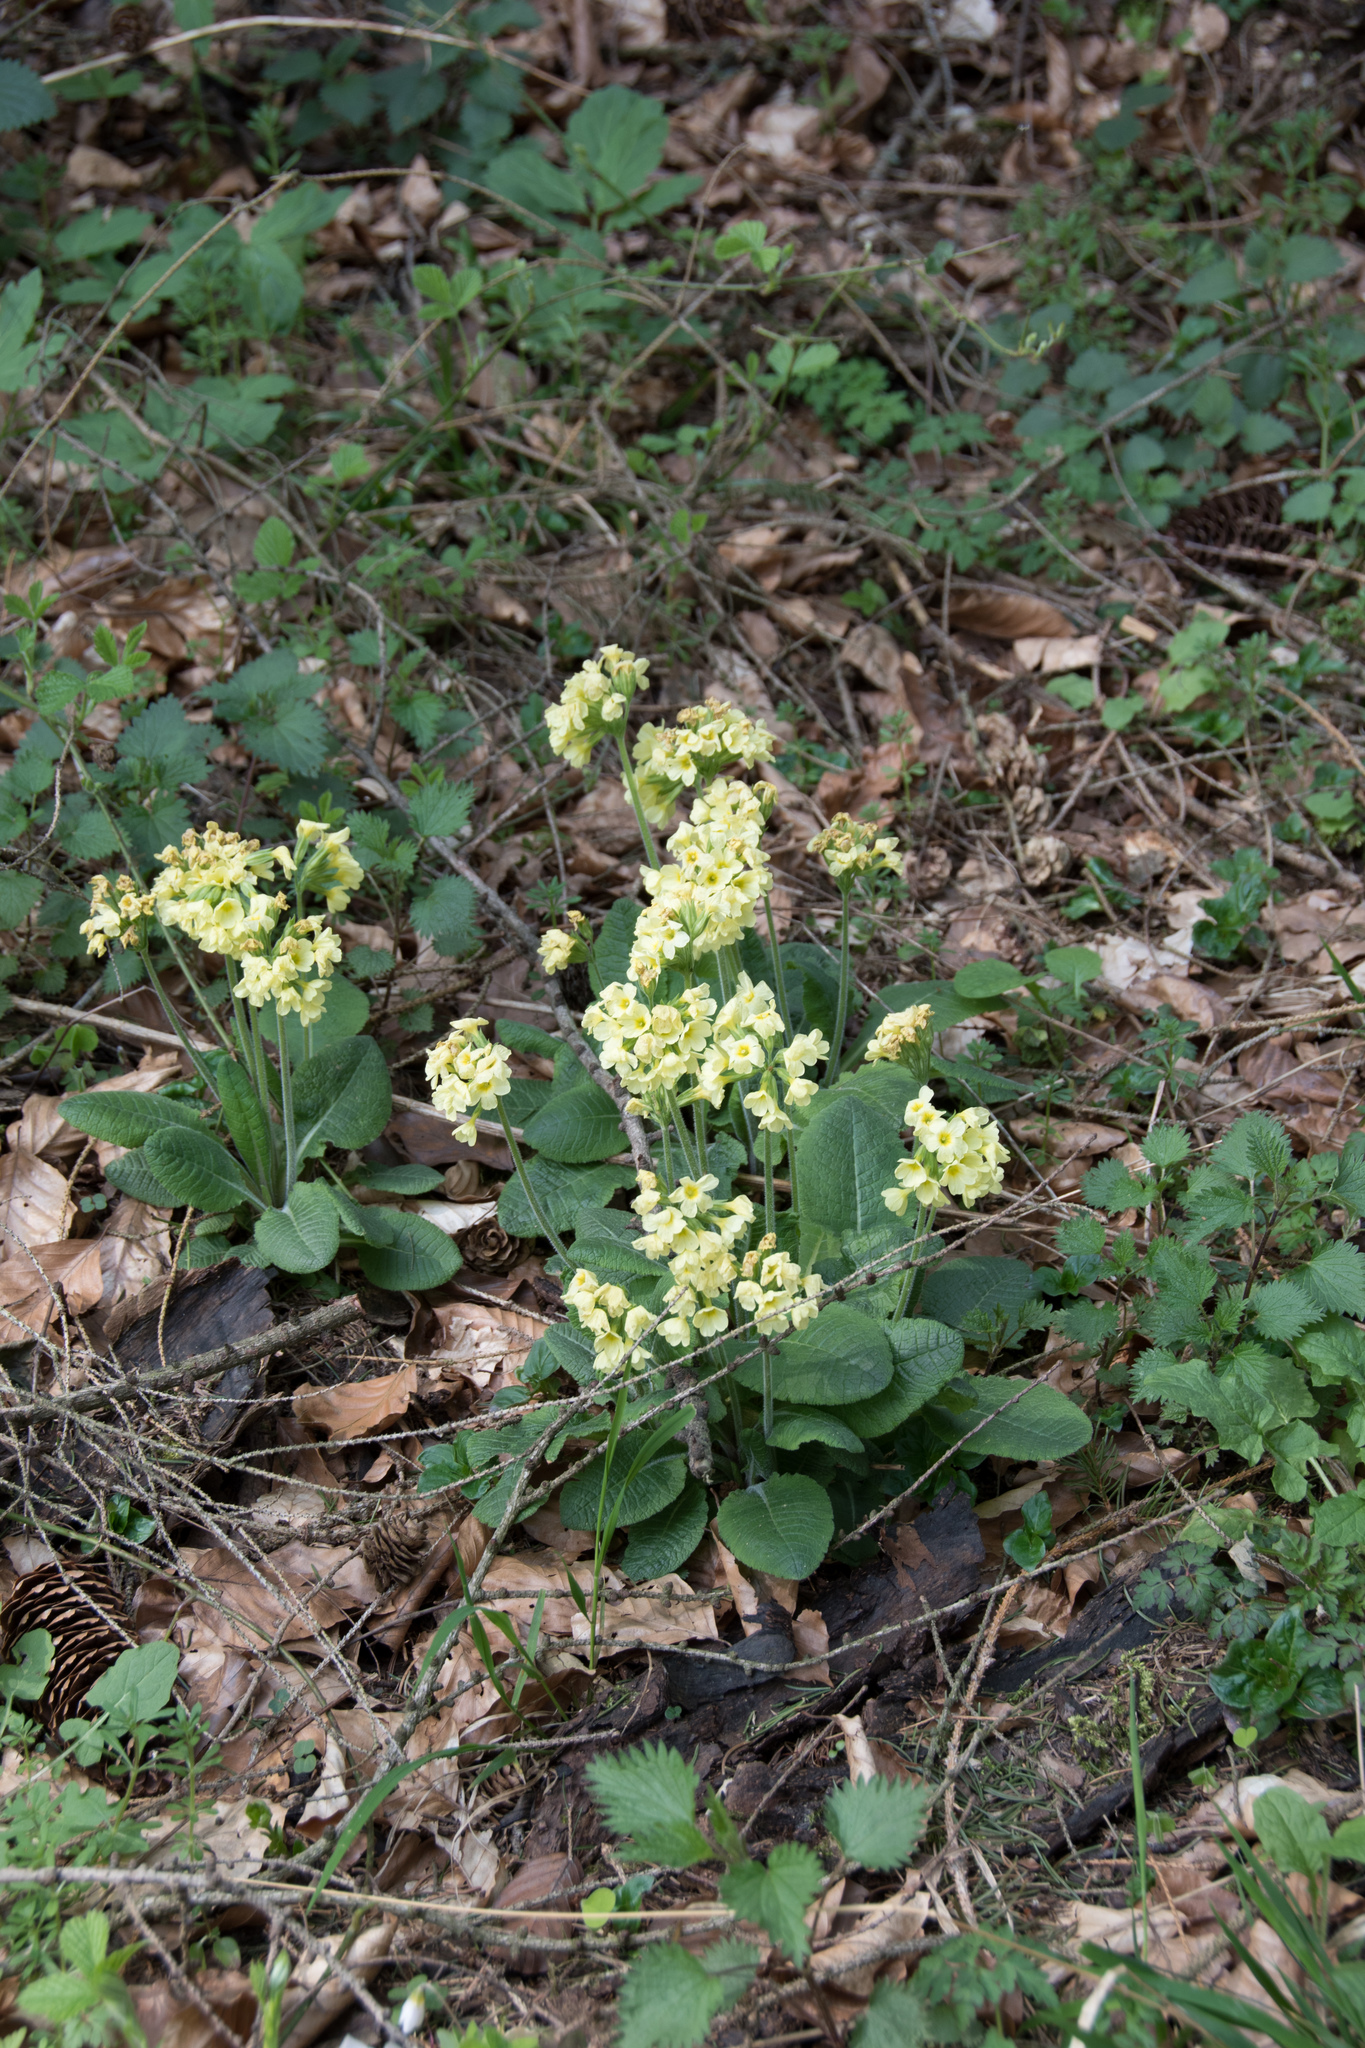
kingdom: Plantae
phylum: Tracheophyta
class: Magnoliopsida
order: Ericales
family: Primulaceae
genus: Primula
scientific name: Primula elatior
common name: Oxlip
